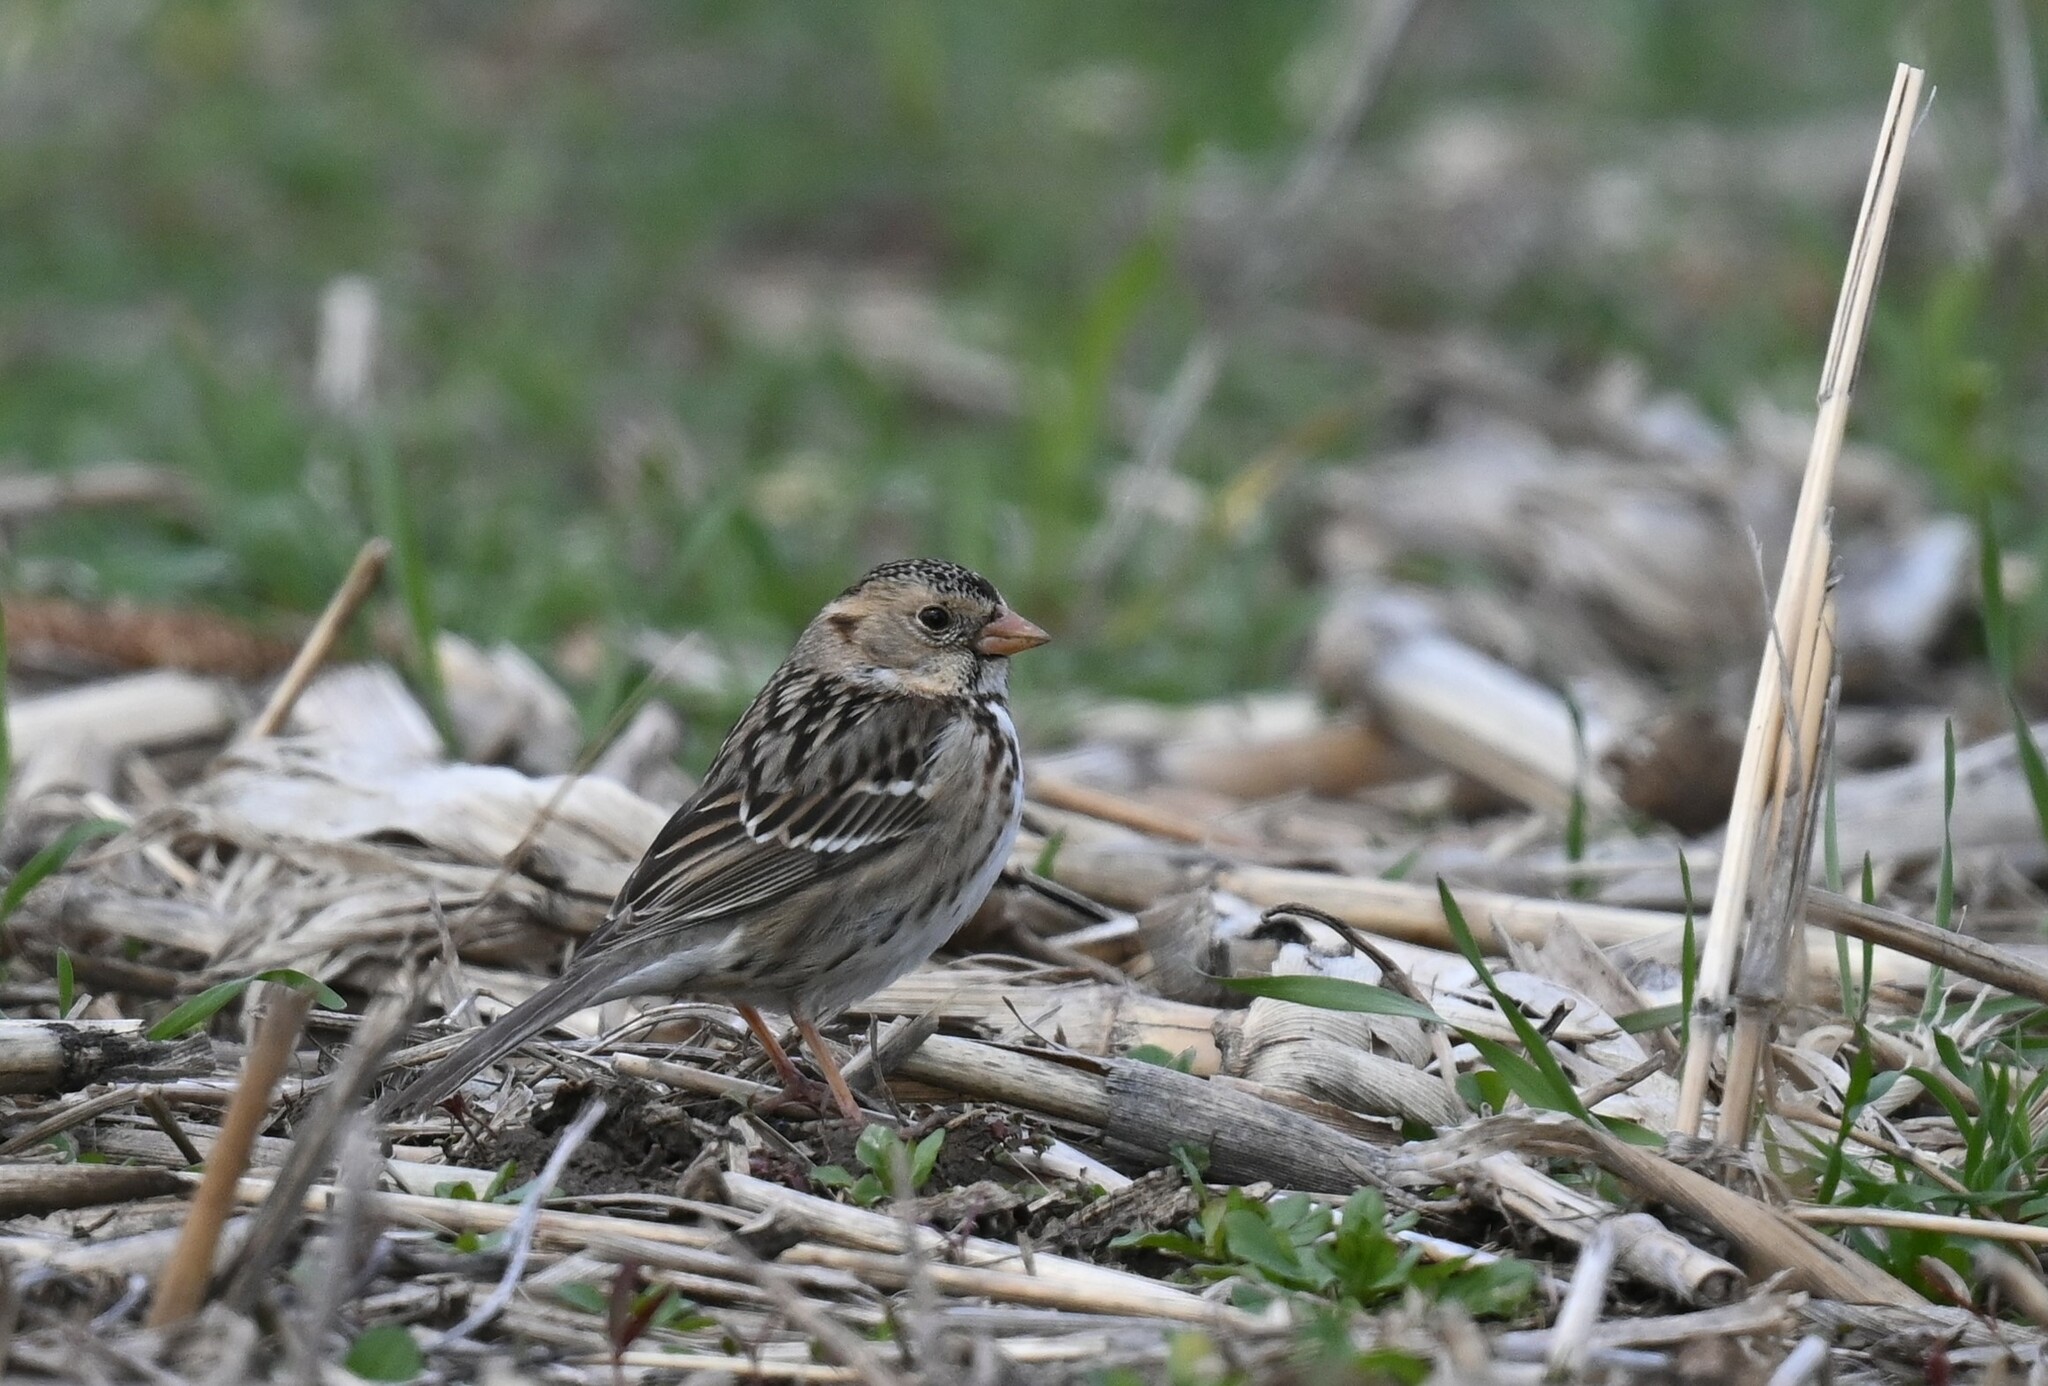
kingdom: Animalia
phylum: Chordata
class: Aves
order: Passeriformes
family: Passerellidae
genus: Zonotrichia
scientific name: Zonotrichia querula
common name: Harris's sparrow
